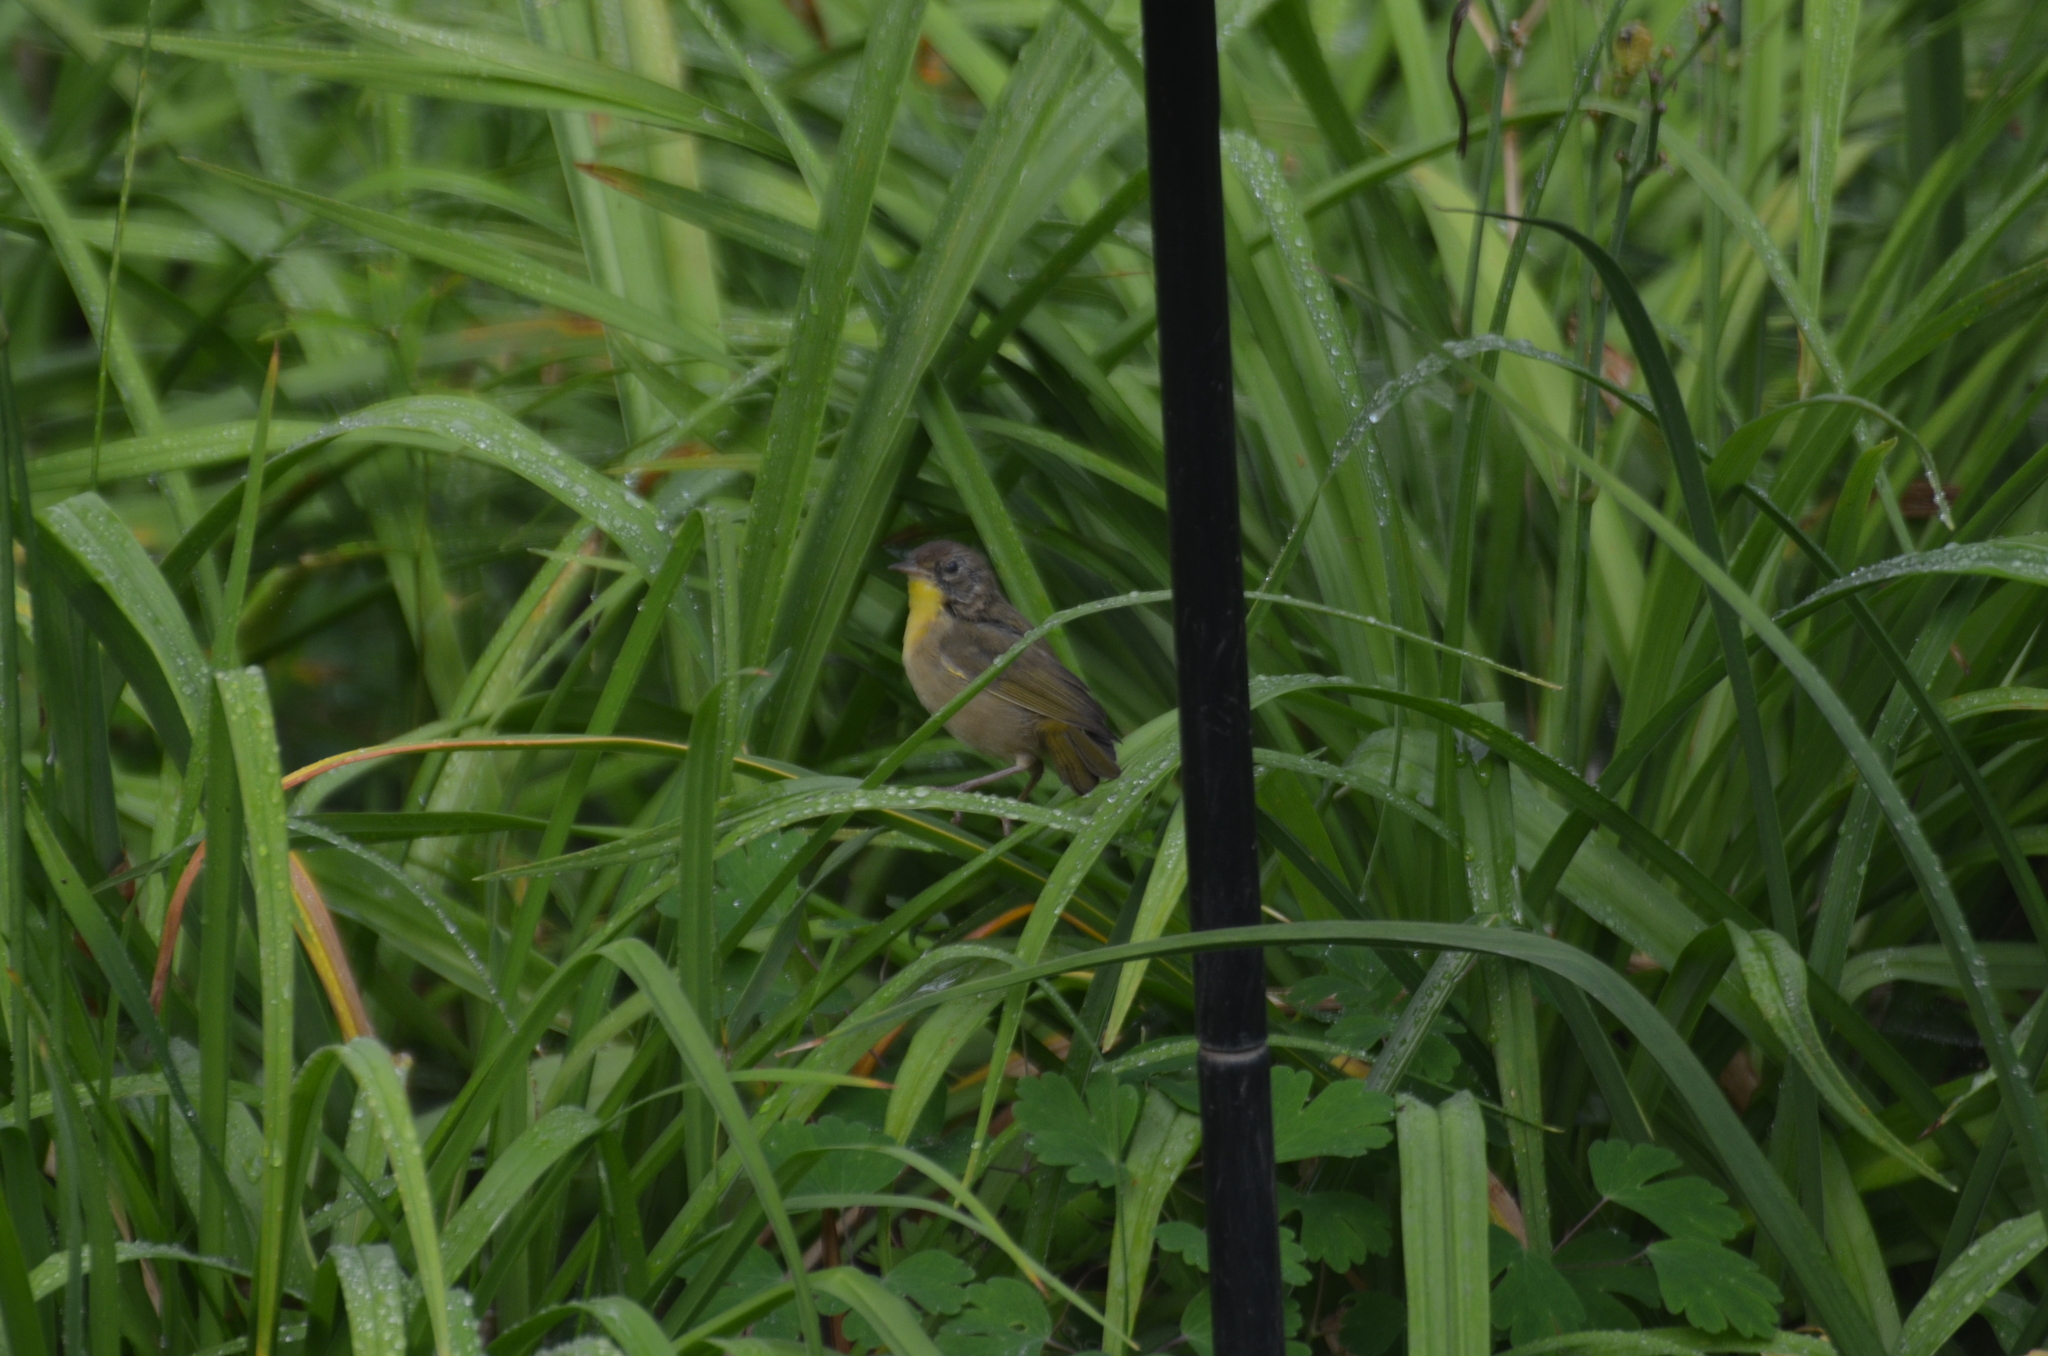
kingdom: Animalia
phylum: Chordata
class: Aves
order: Passeriformes
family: Parulidae
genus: Geothlypis
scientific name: Geothlypis trichas
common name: Common yellowthroat
